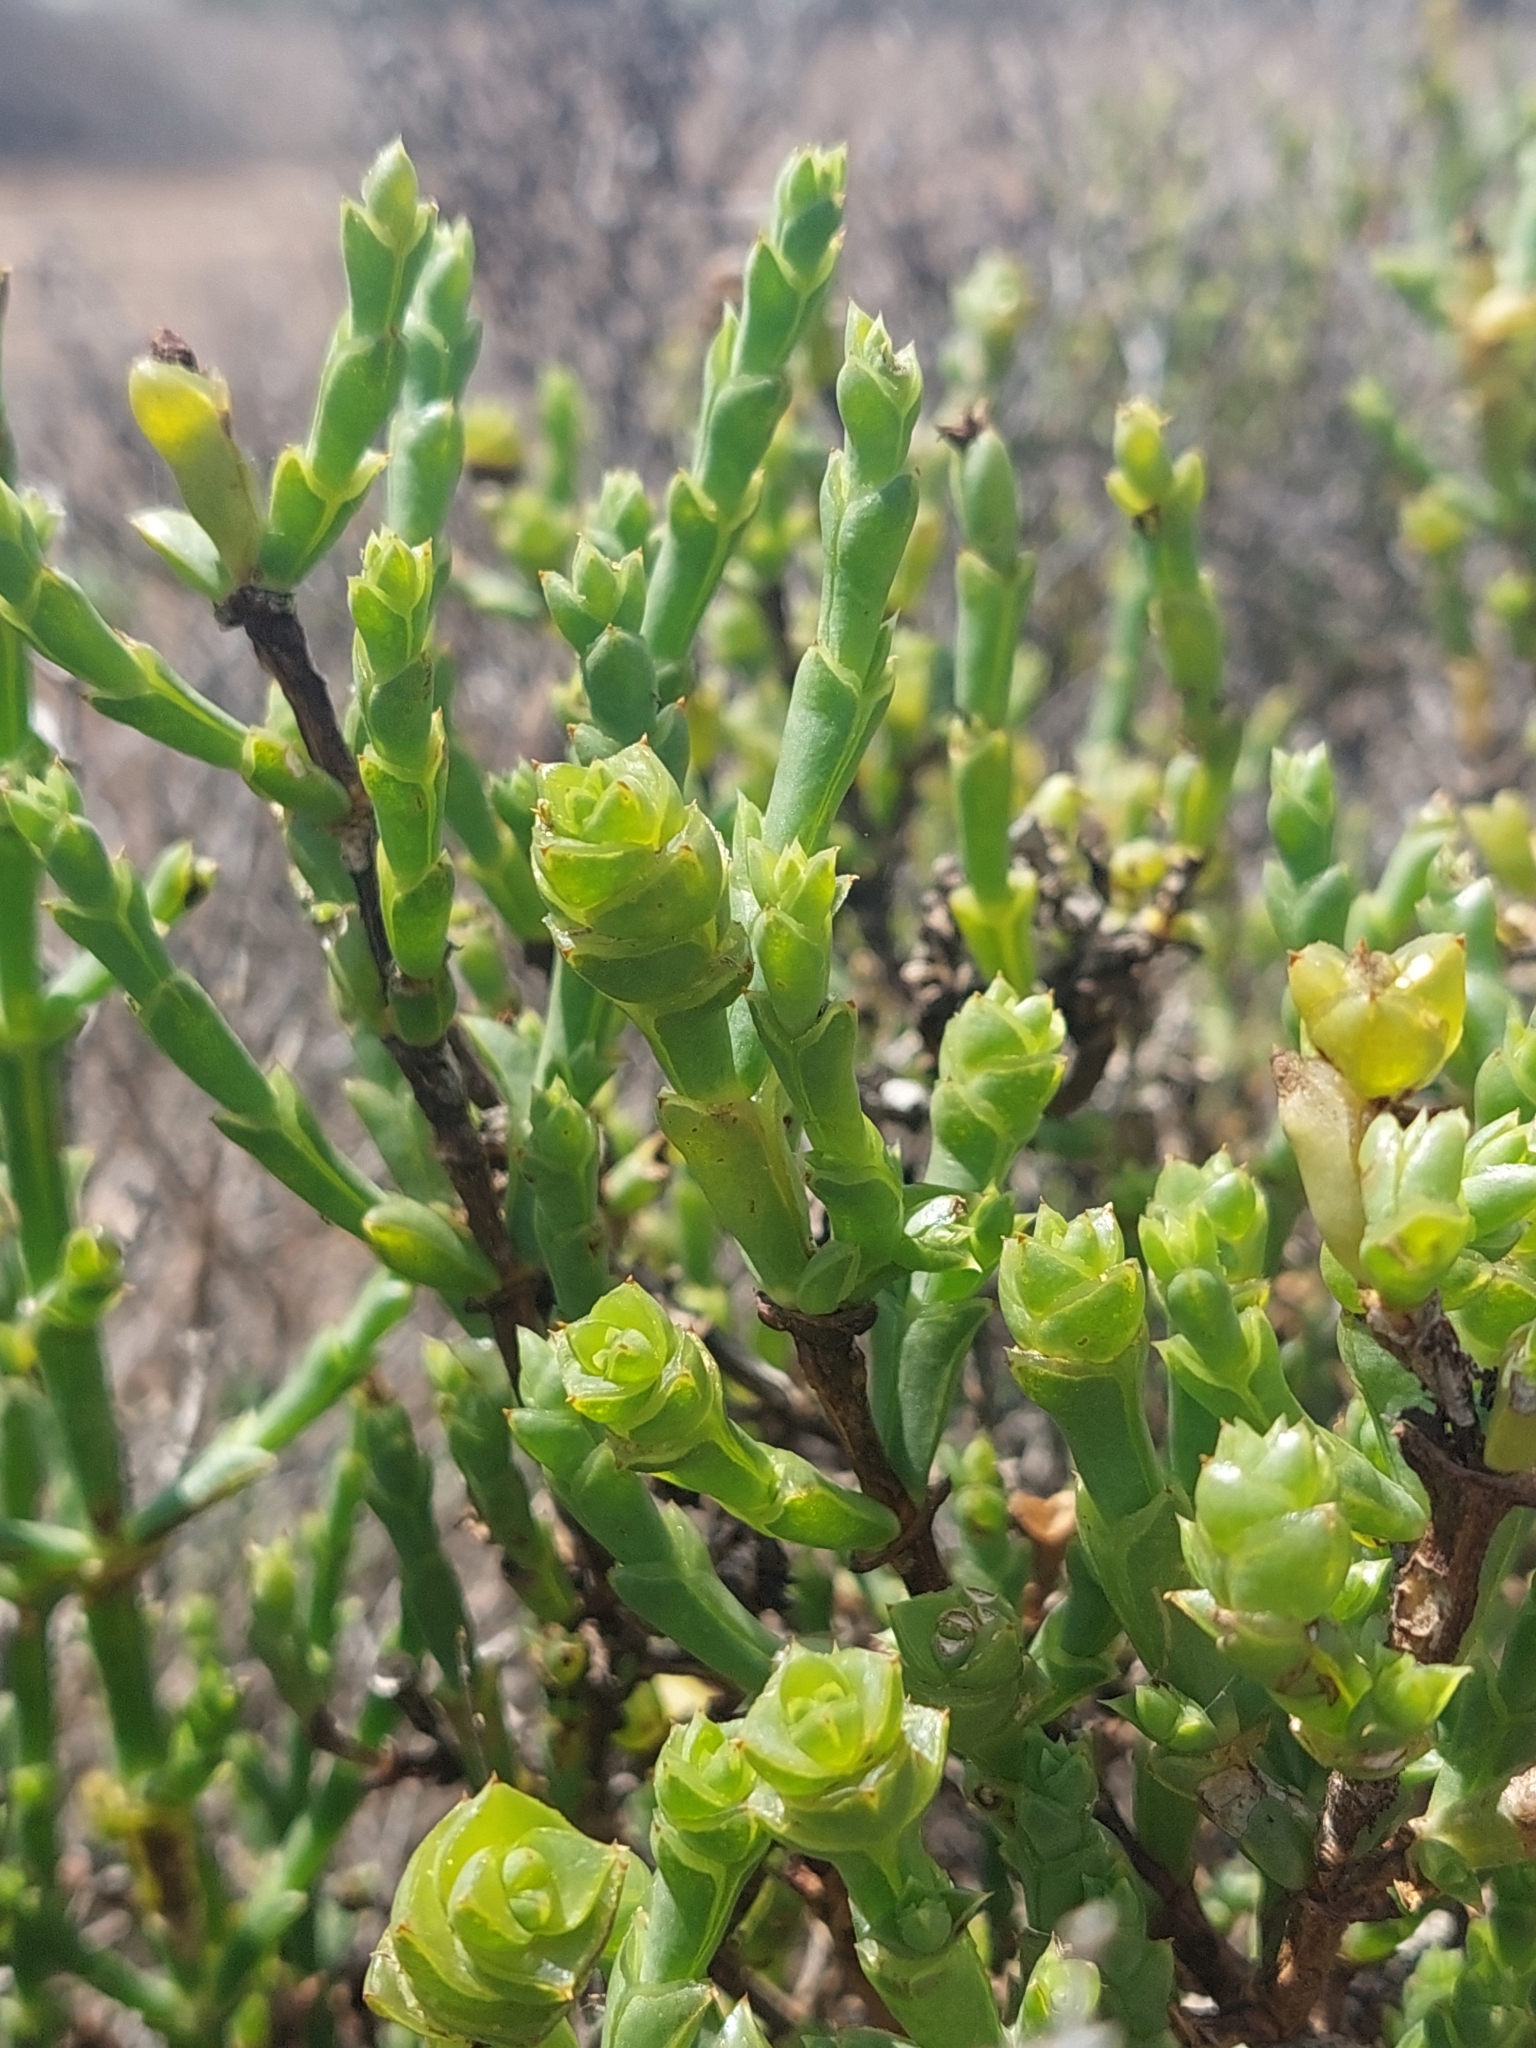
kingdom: Plantae
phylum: Tracheophyta
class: Magnoliopsida
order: Caryophyllales
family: Amaranthaceae
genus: Tecticornia
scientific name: Tecticornia triandra
